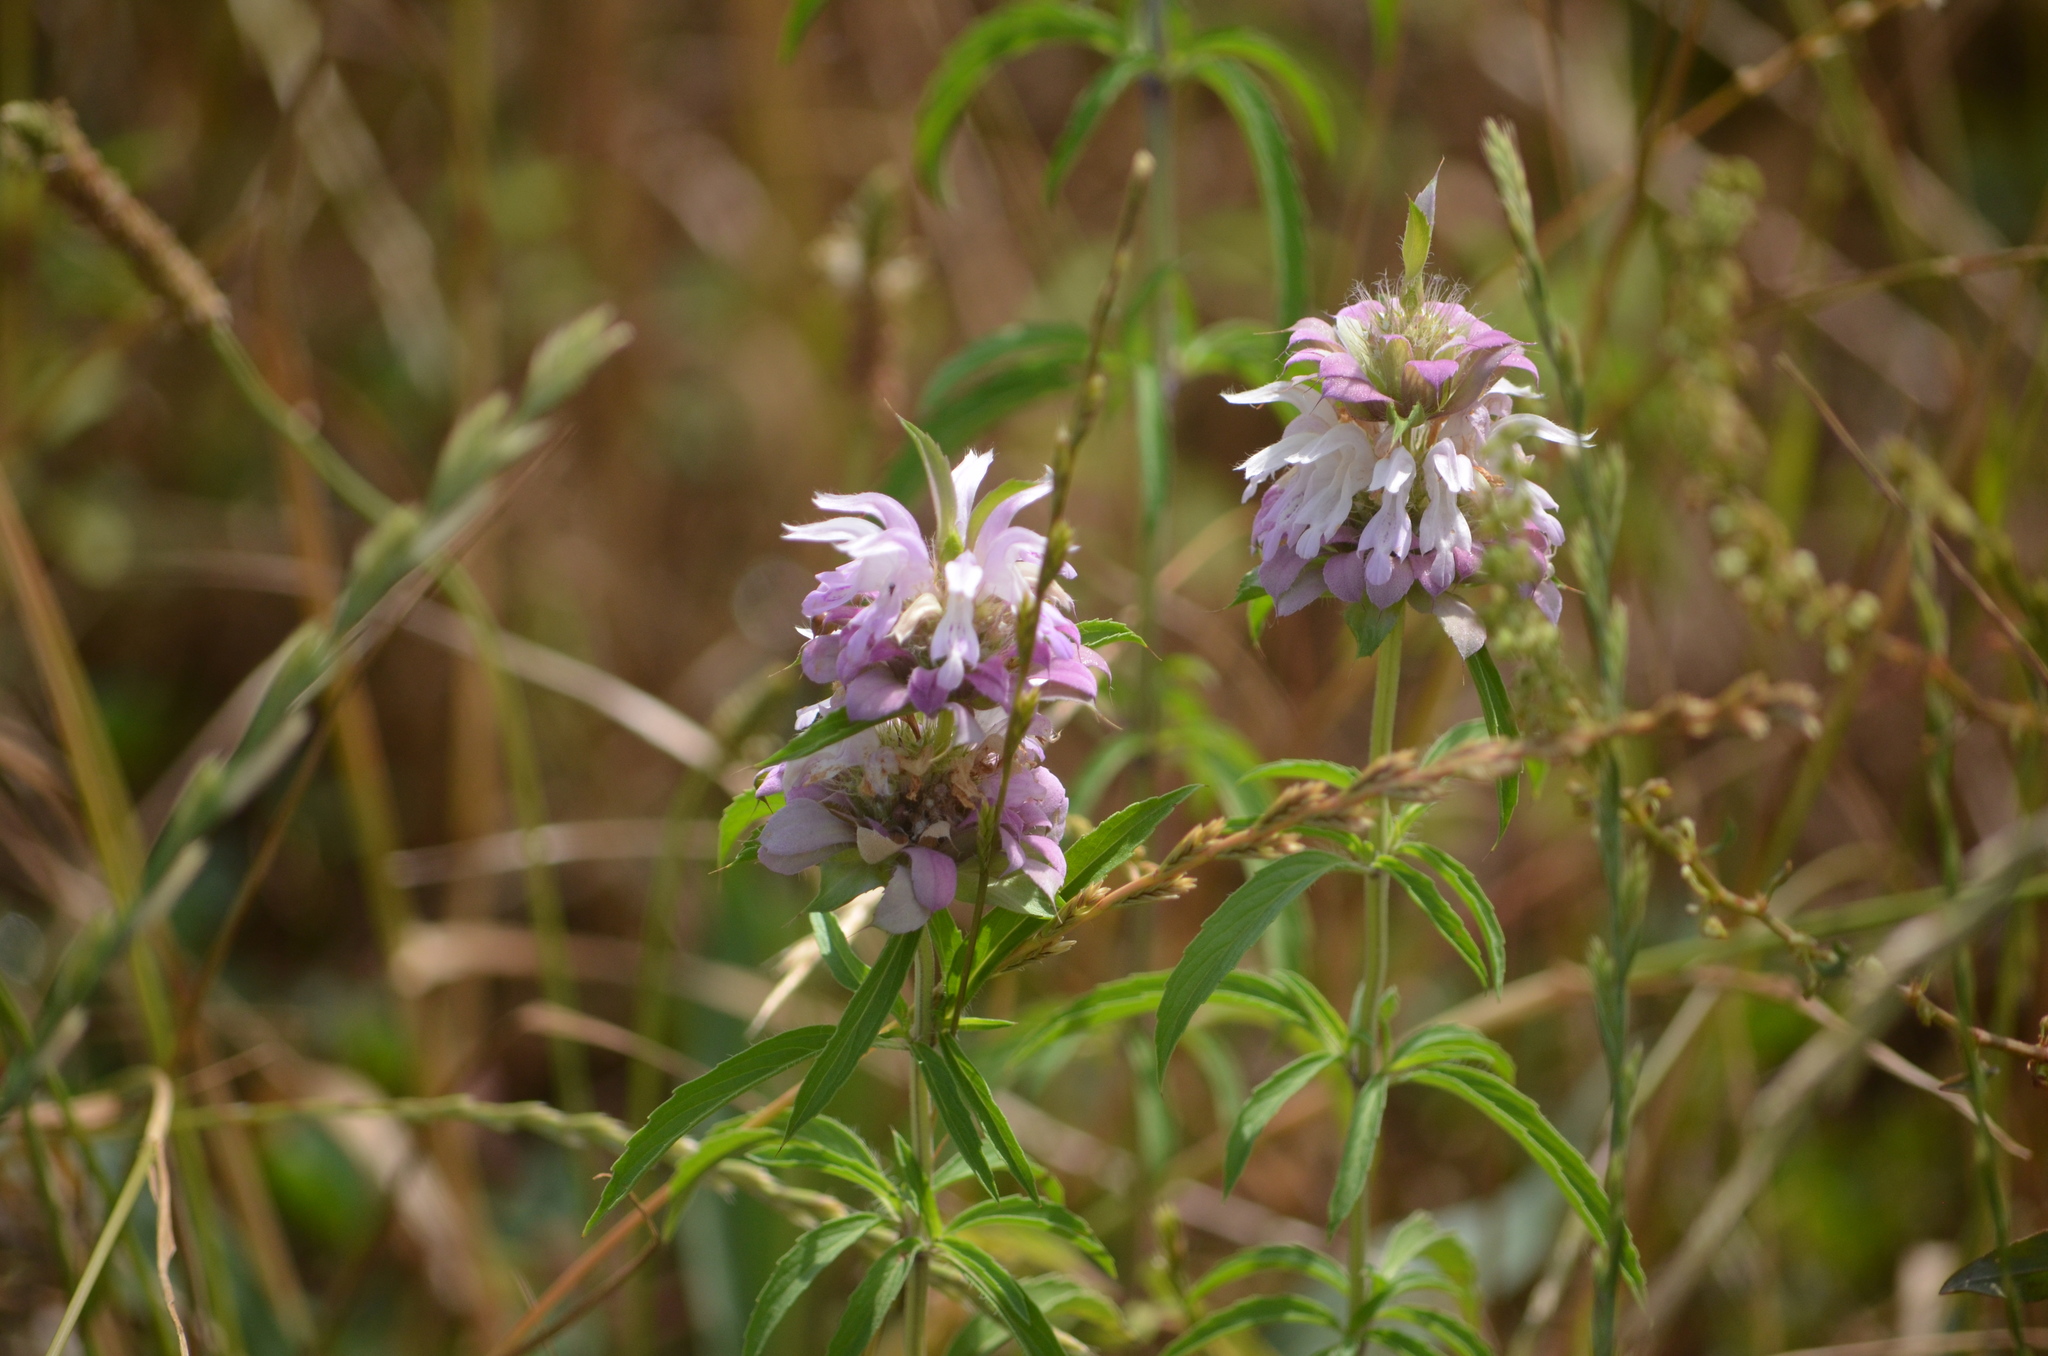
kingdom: Plantae
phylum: Tracheophyta
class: Magnoliopsida
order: Lamiales
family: Lamiaceae
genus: Monarda
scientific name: Monarda citriodora
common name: Lemon beebalm
